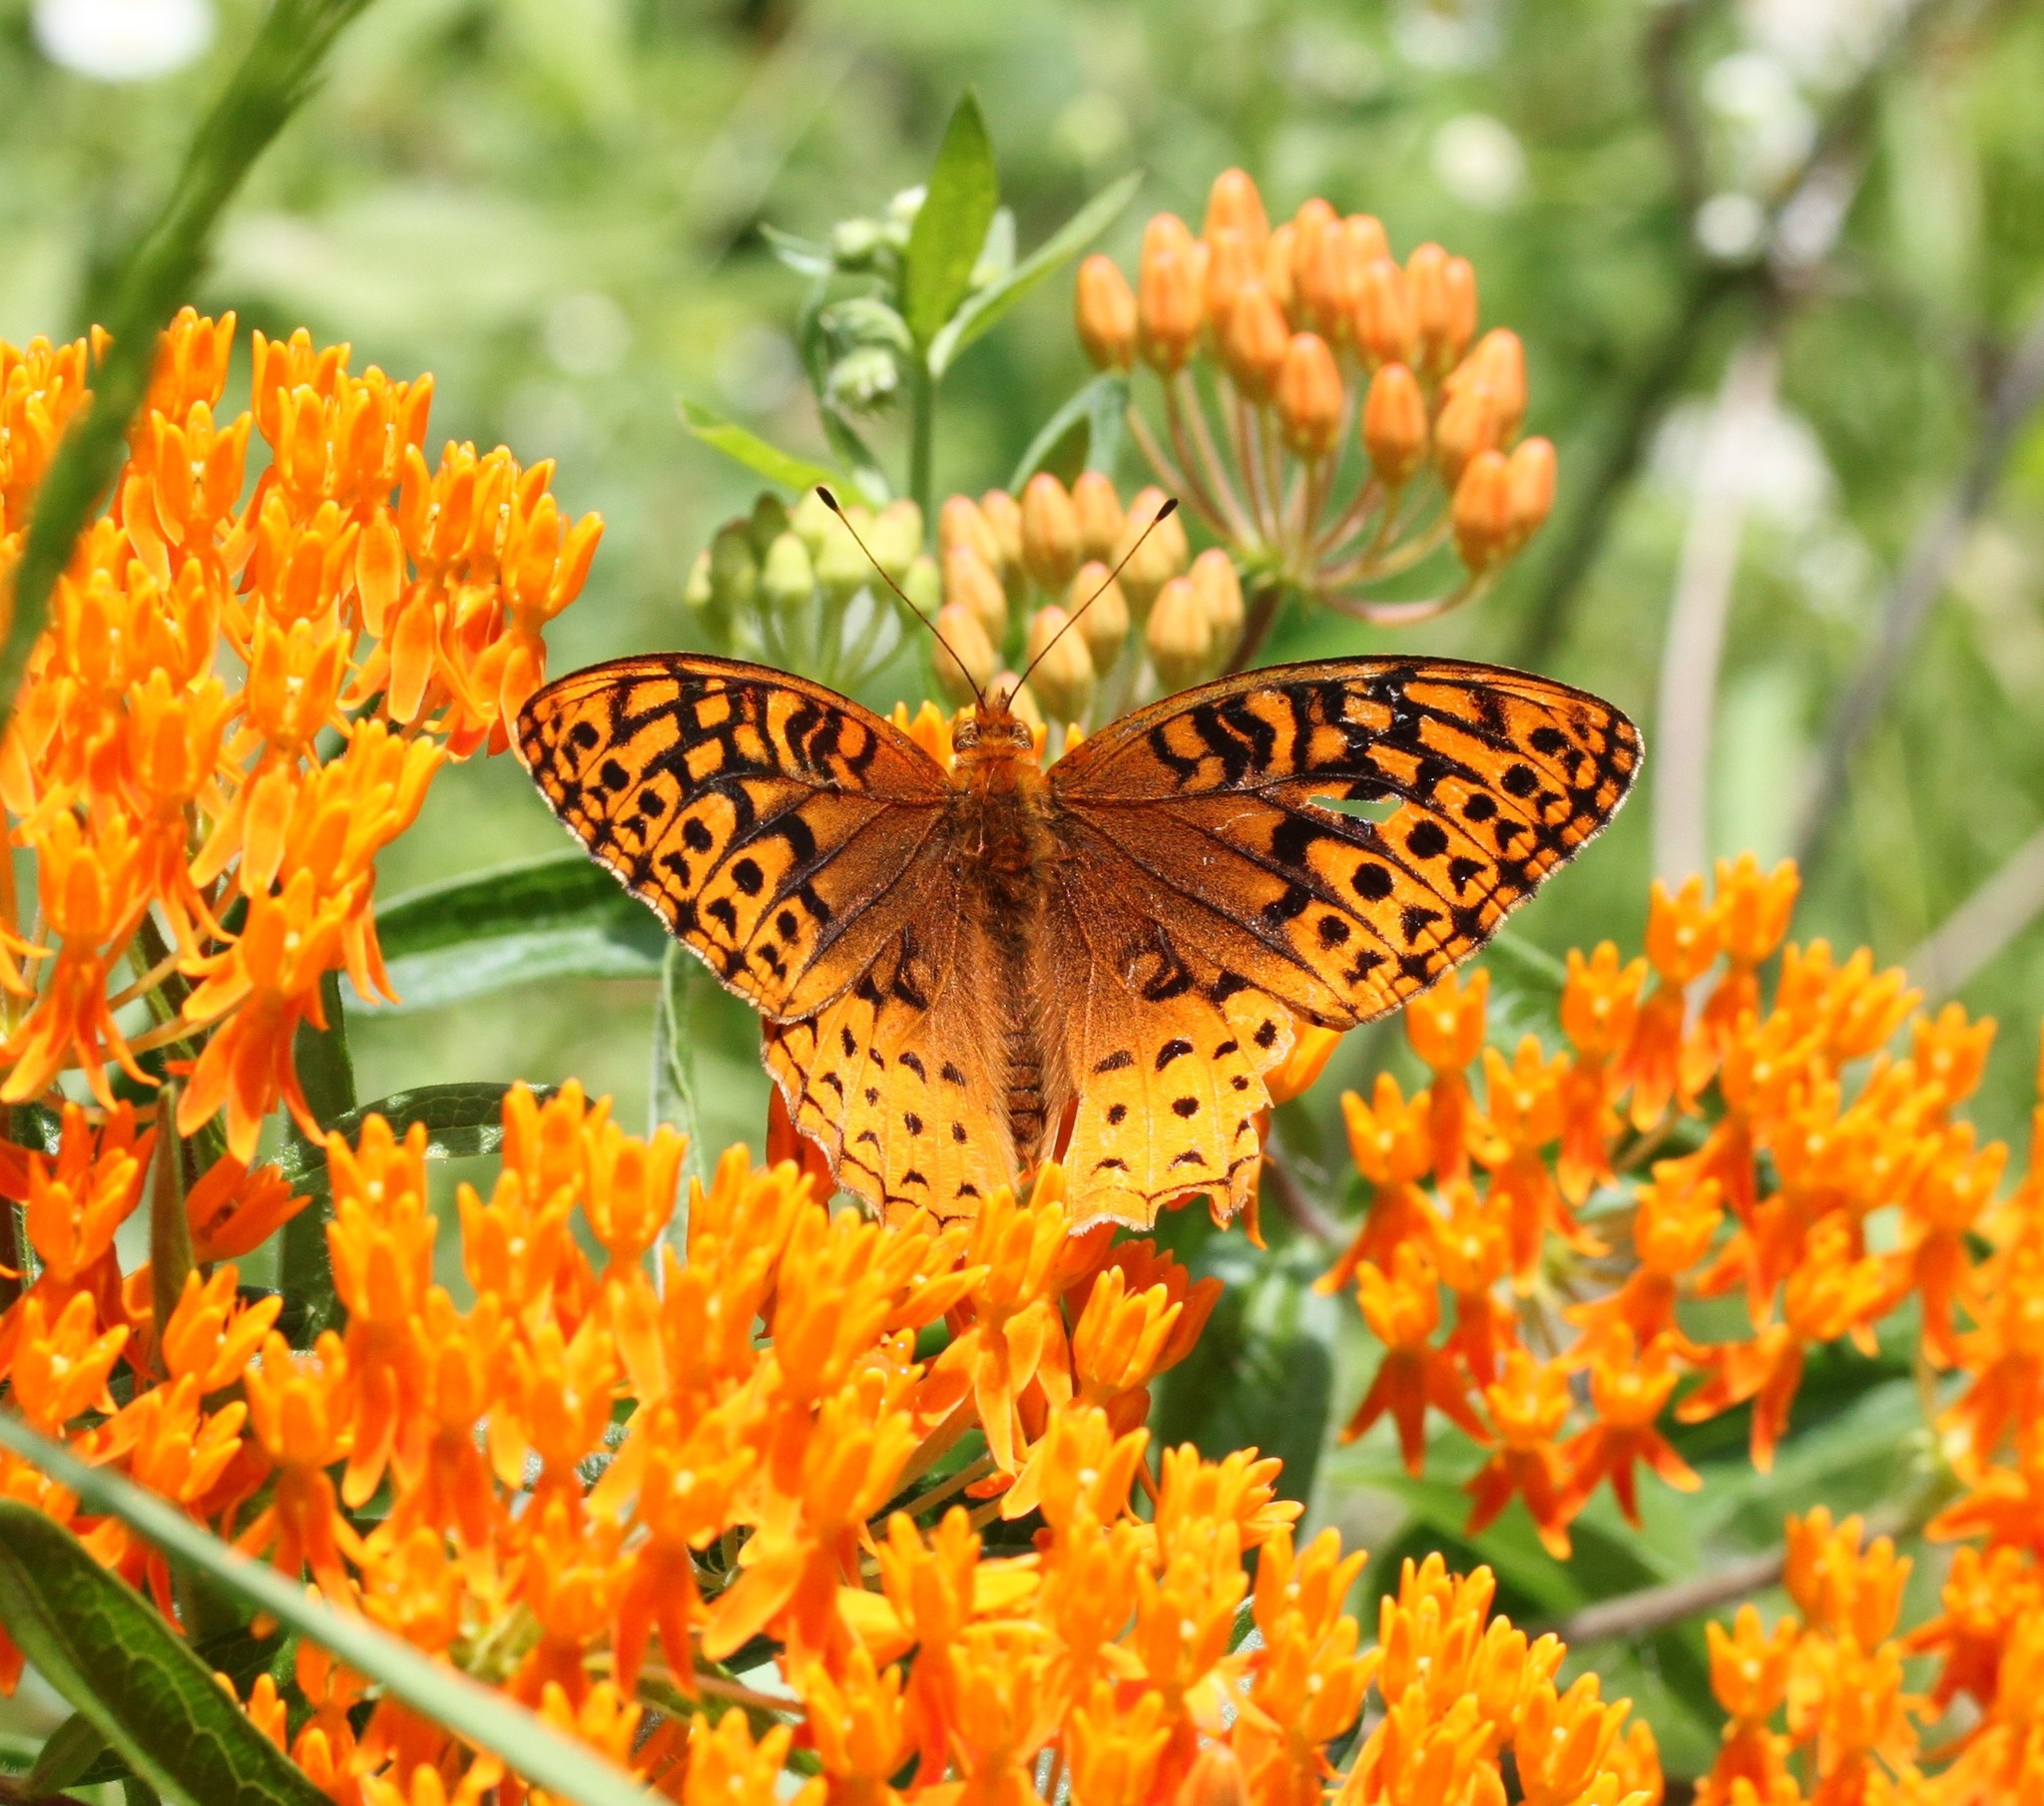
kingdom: Animalia
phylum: Arthropoda
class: Insecta
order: Lepidoptera
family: Nymphalidae
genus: Speyeria
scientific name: Speyeria cybele
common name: Great spangled fritillary
